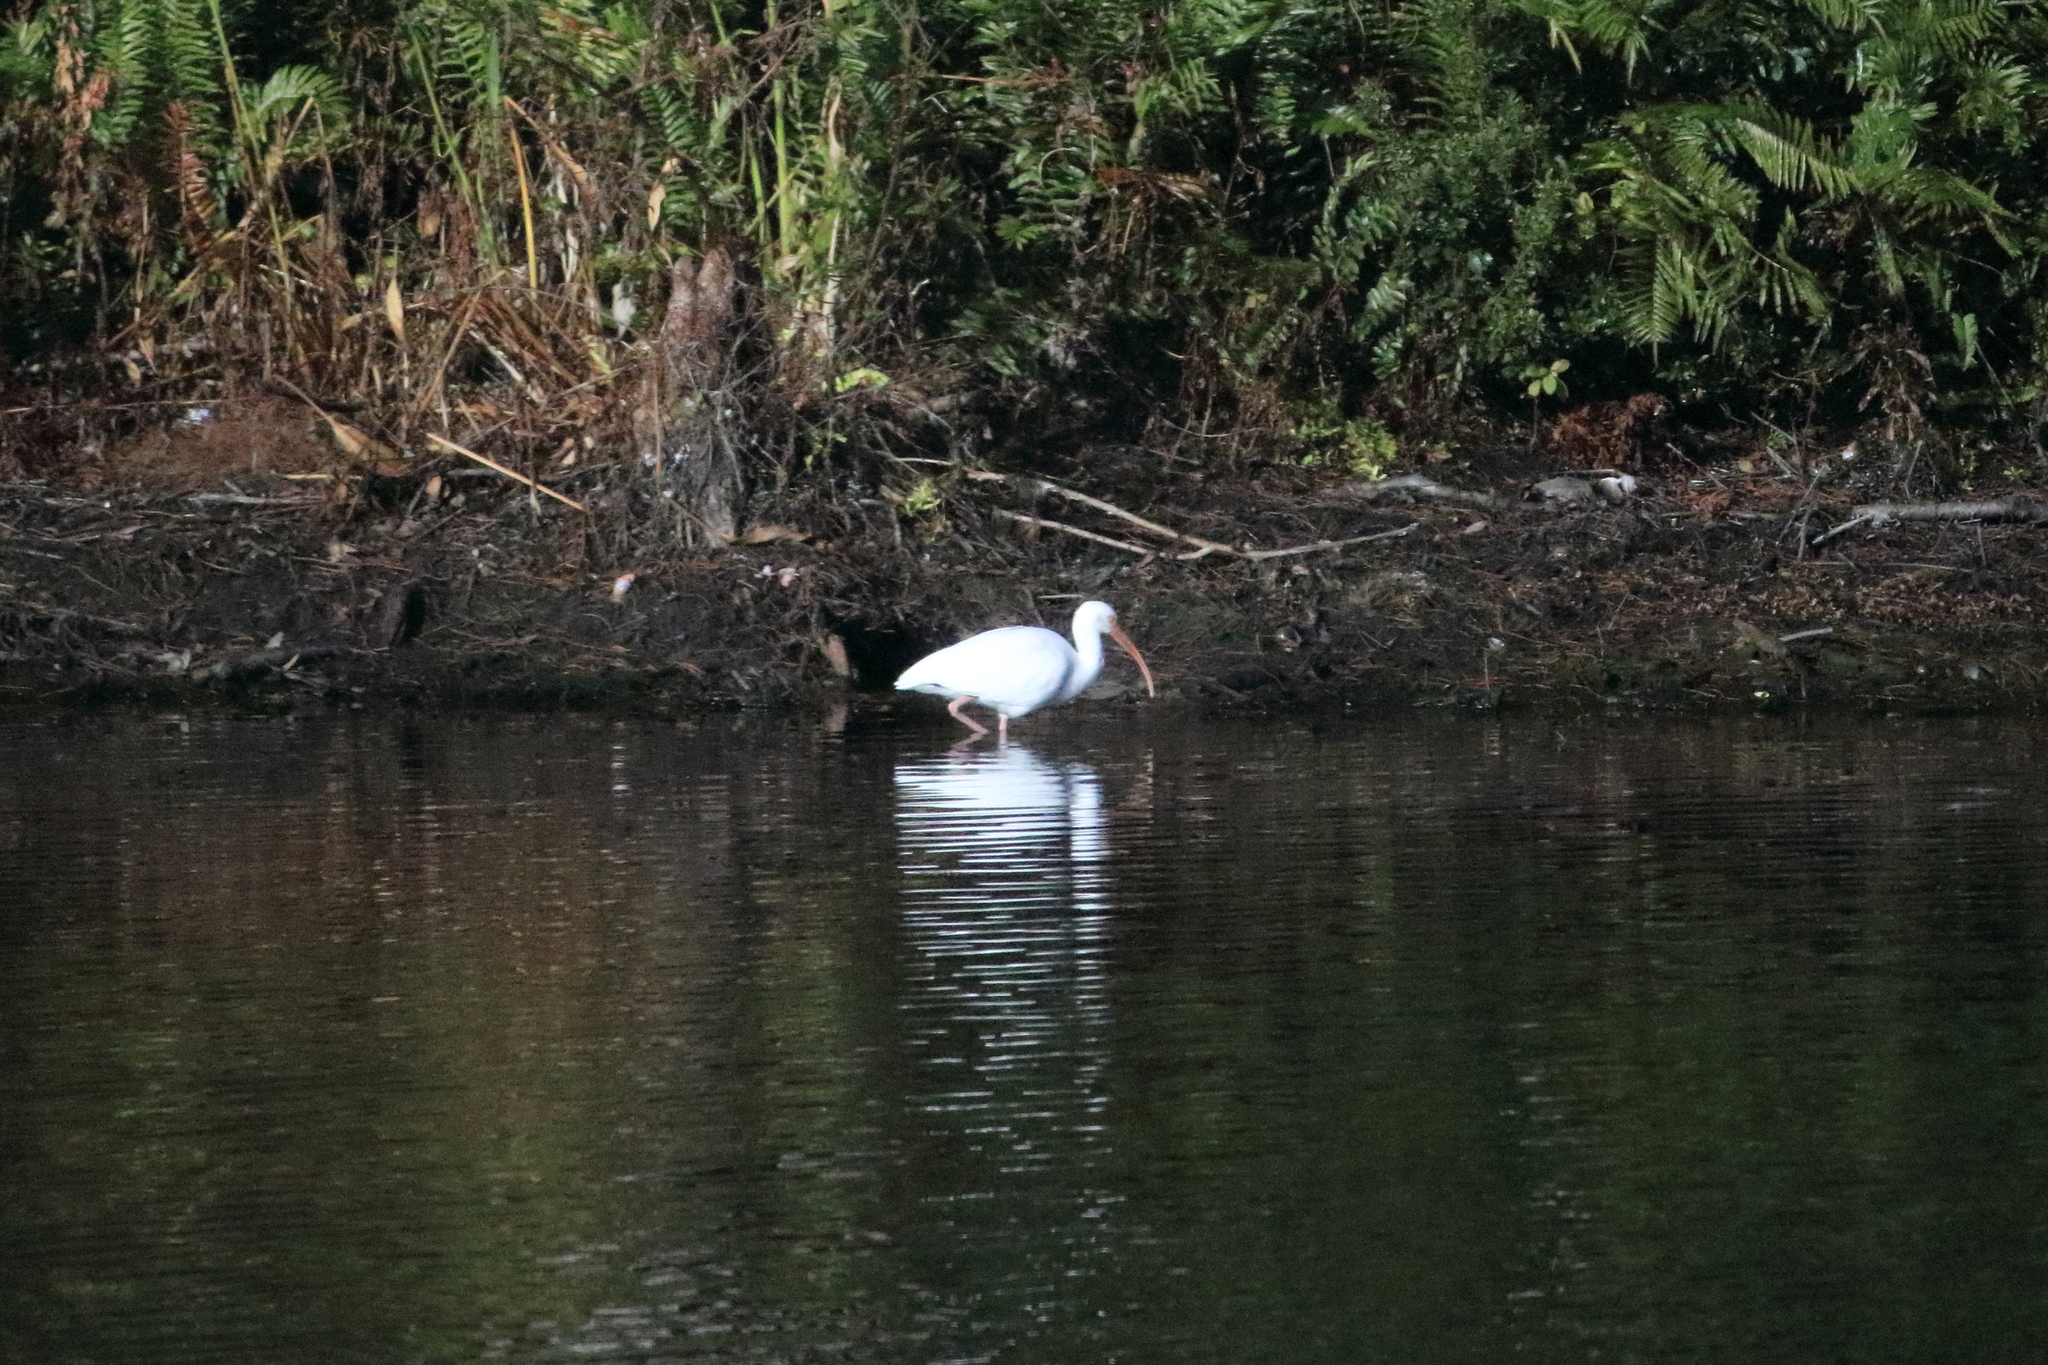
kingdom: Animalia
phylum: Chordata
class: Aves
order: Pelecaniformes
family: Threskiornithidae
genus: Eudocimus
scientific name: Eudocimus albus
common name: White ibis
